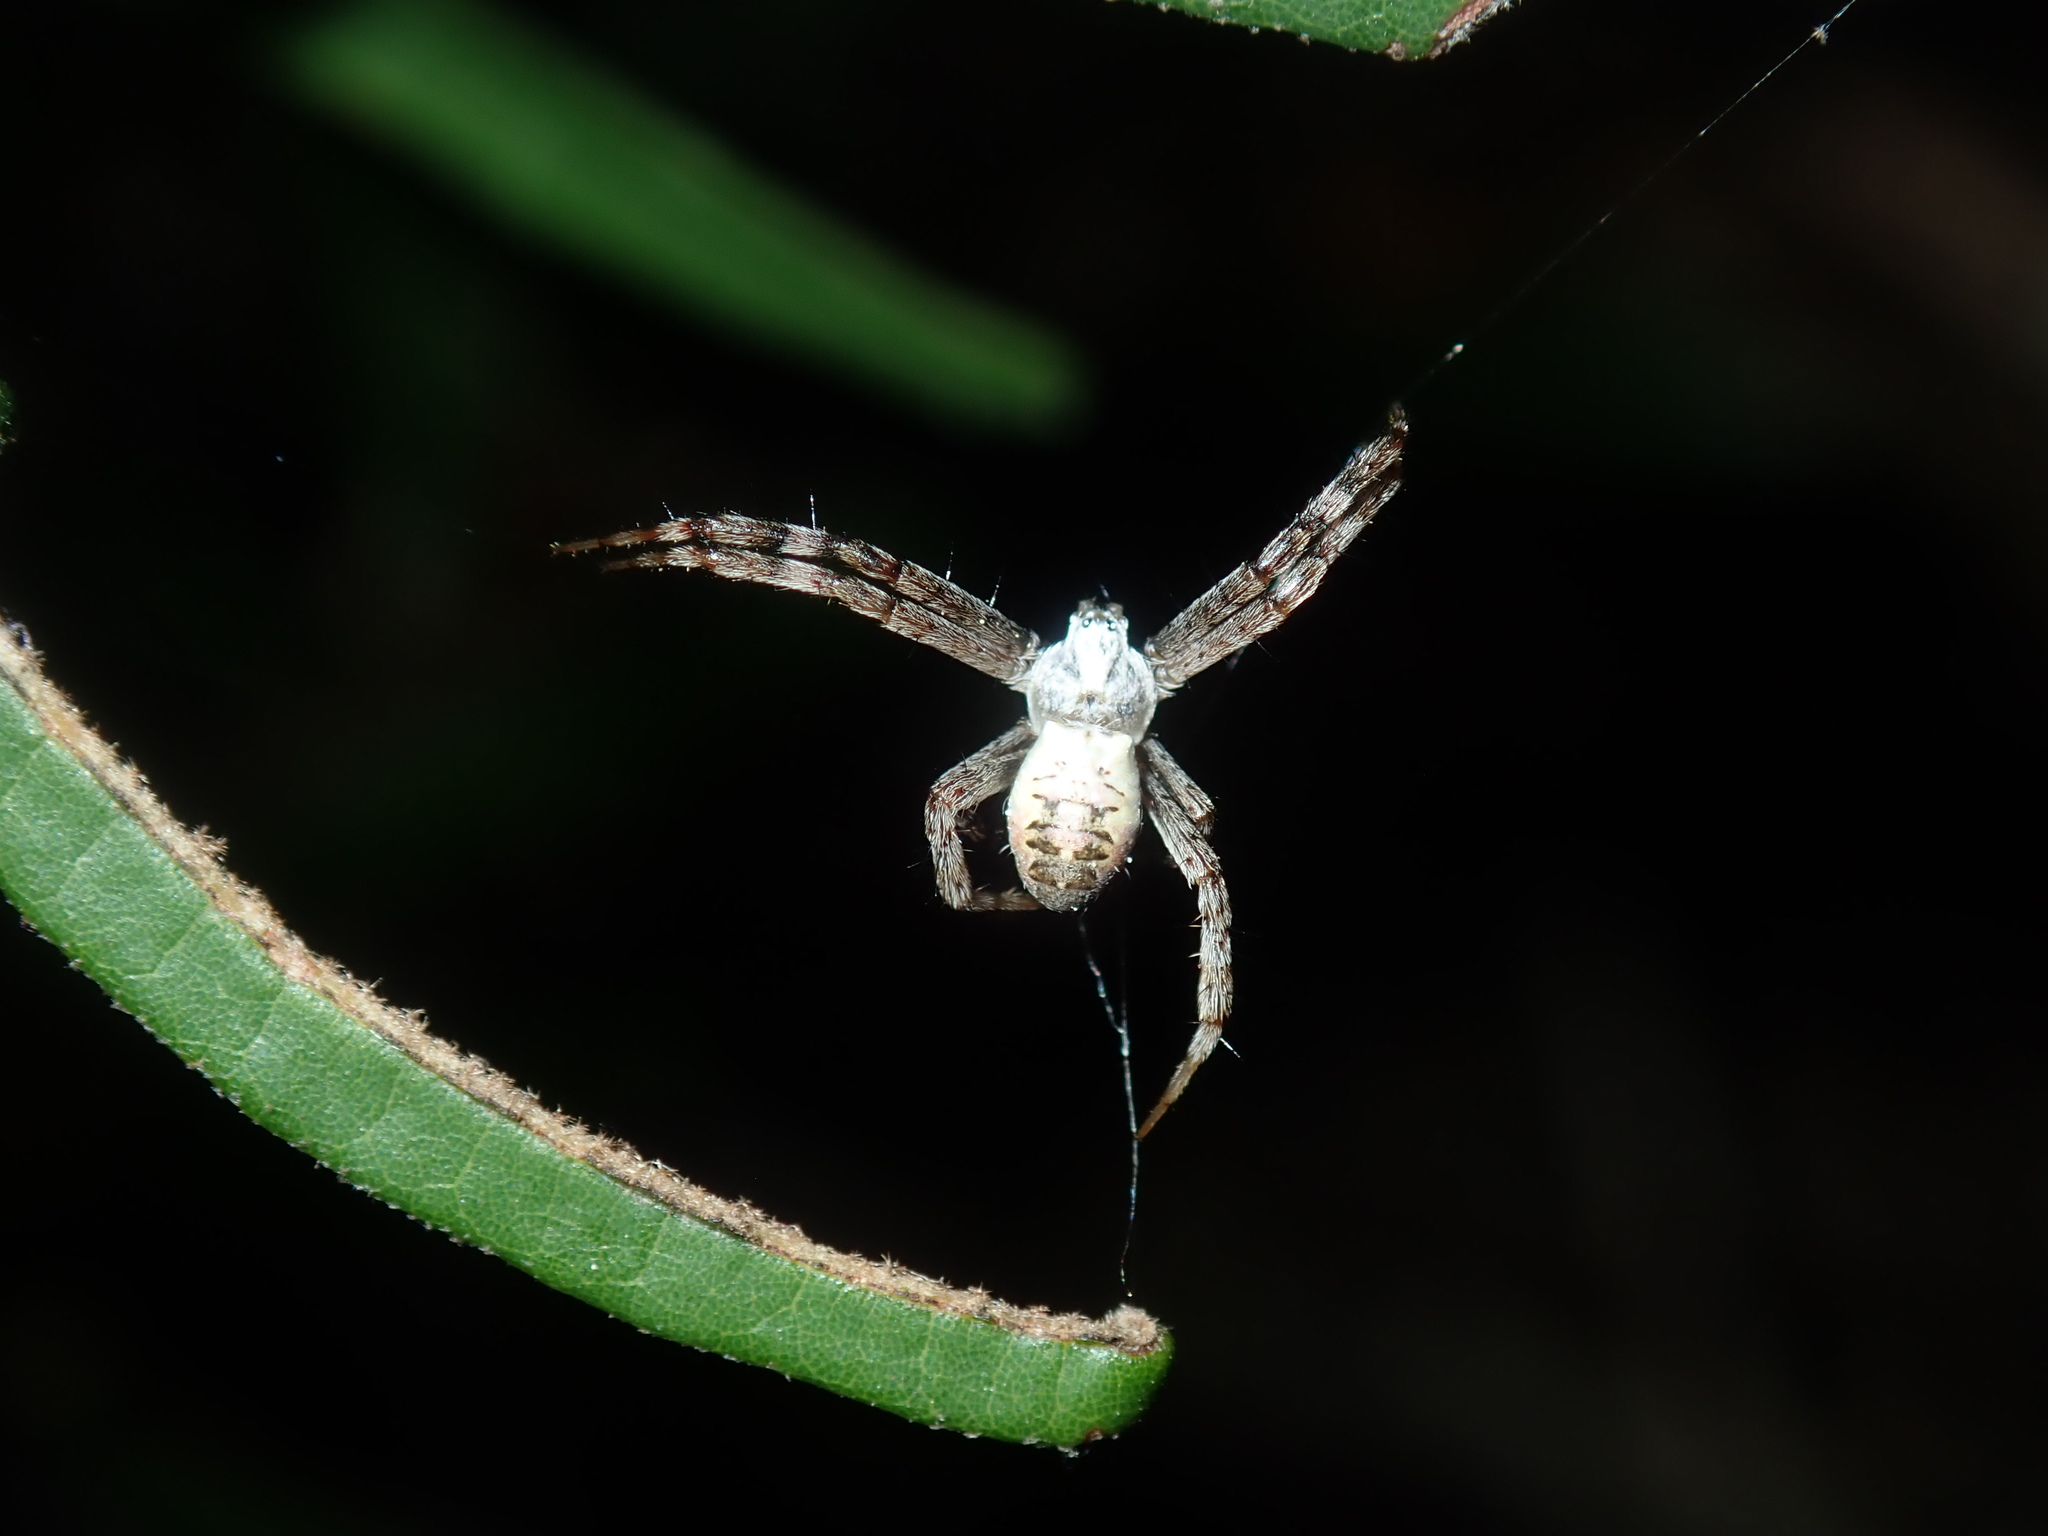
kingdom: Animalia
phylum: Arthropoda
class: Arachnida
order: Araneae
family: Araneidae
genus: Argiope
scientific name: Argiope keyserlingi
